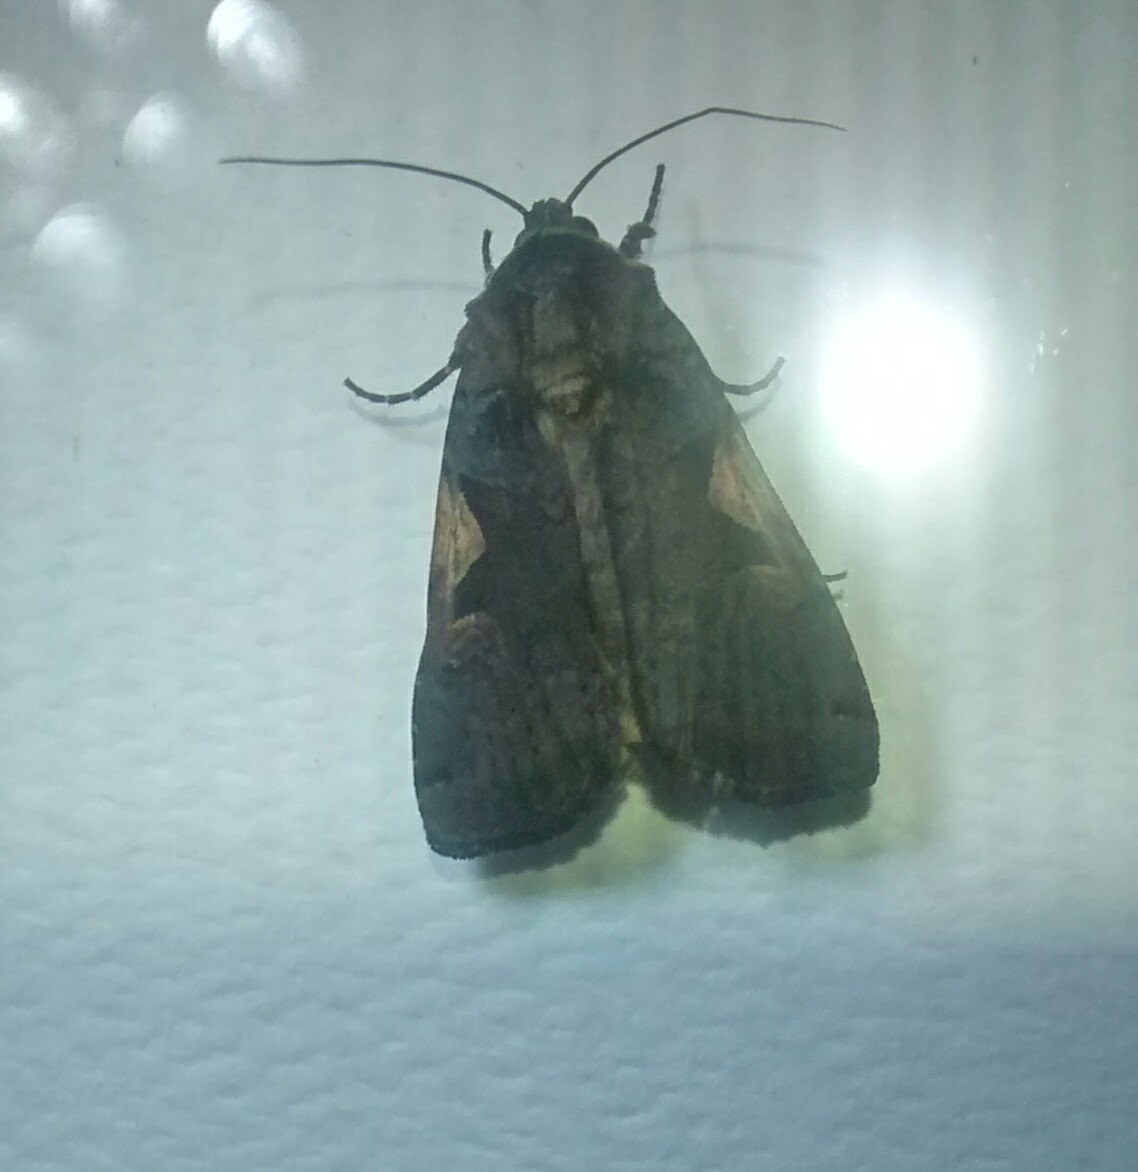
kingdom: Animalia
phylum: Arthropoda
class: Insecta
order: Lepidoptera
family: Noctuidae
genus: Xestia
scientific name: Xestia c-nigrum
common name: Setaceous hebrew character
